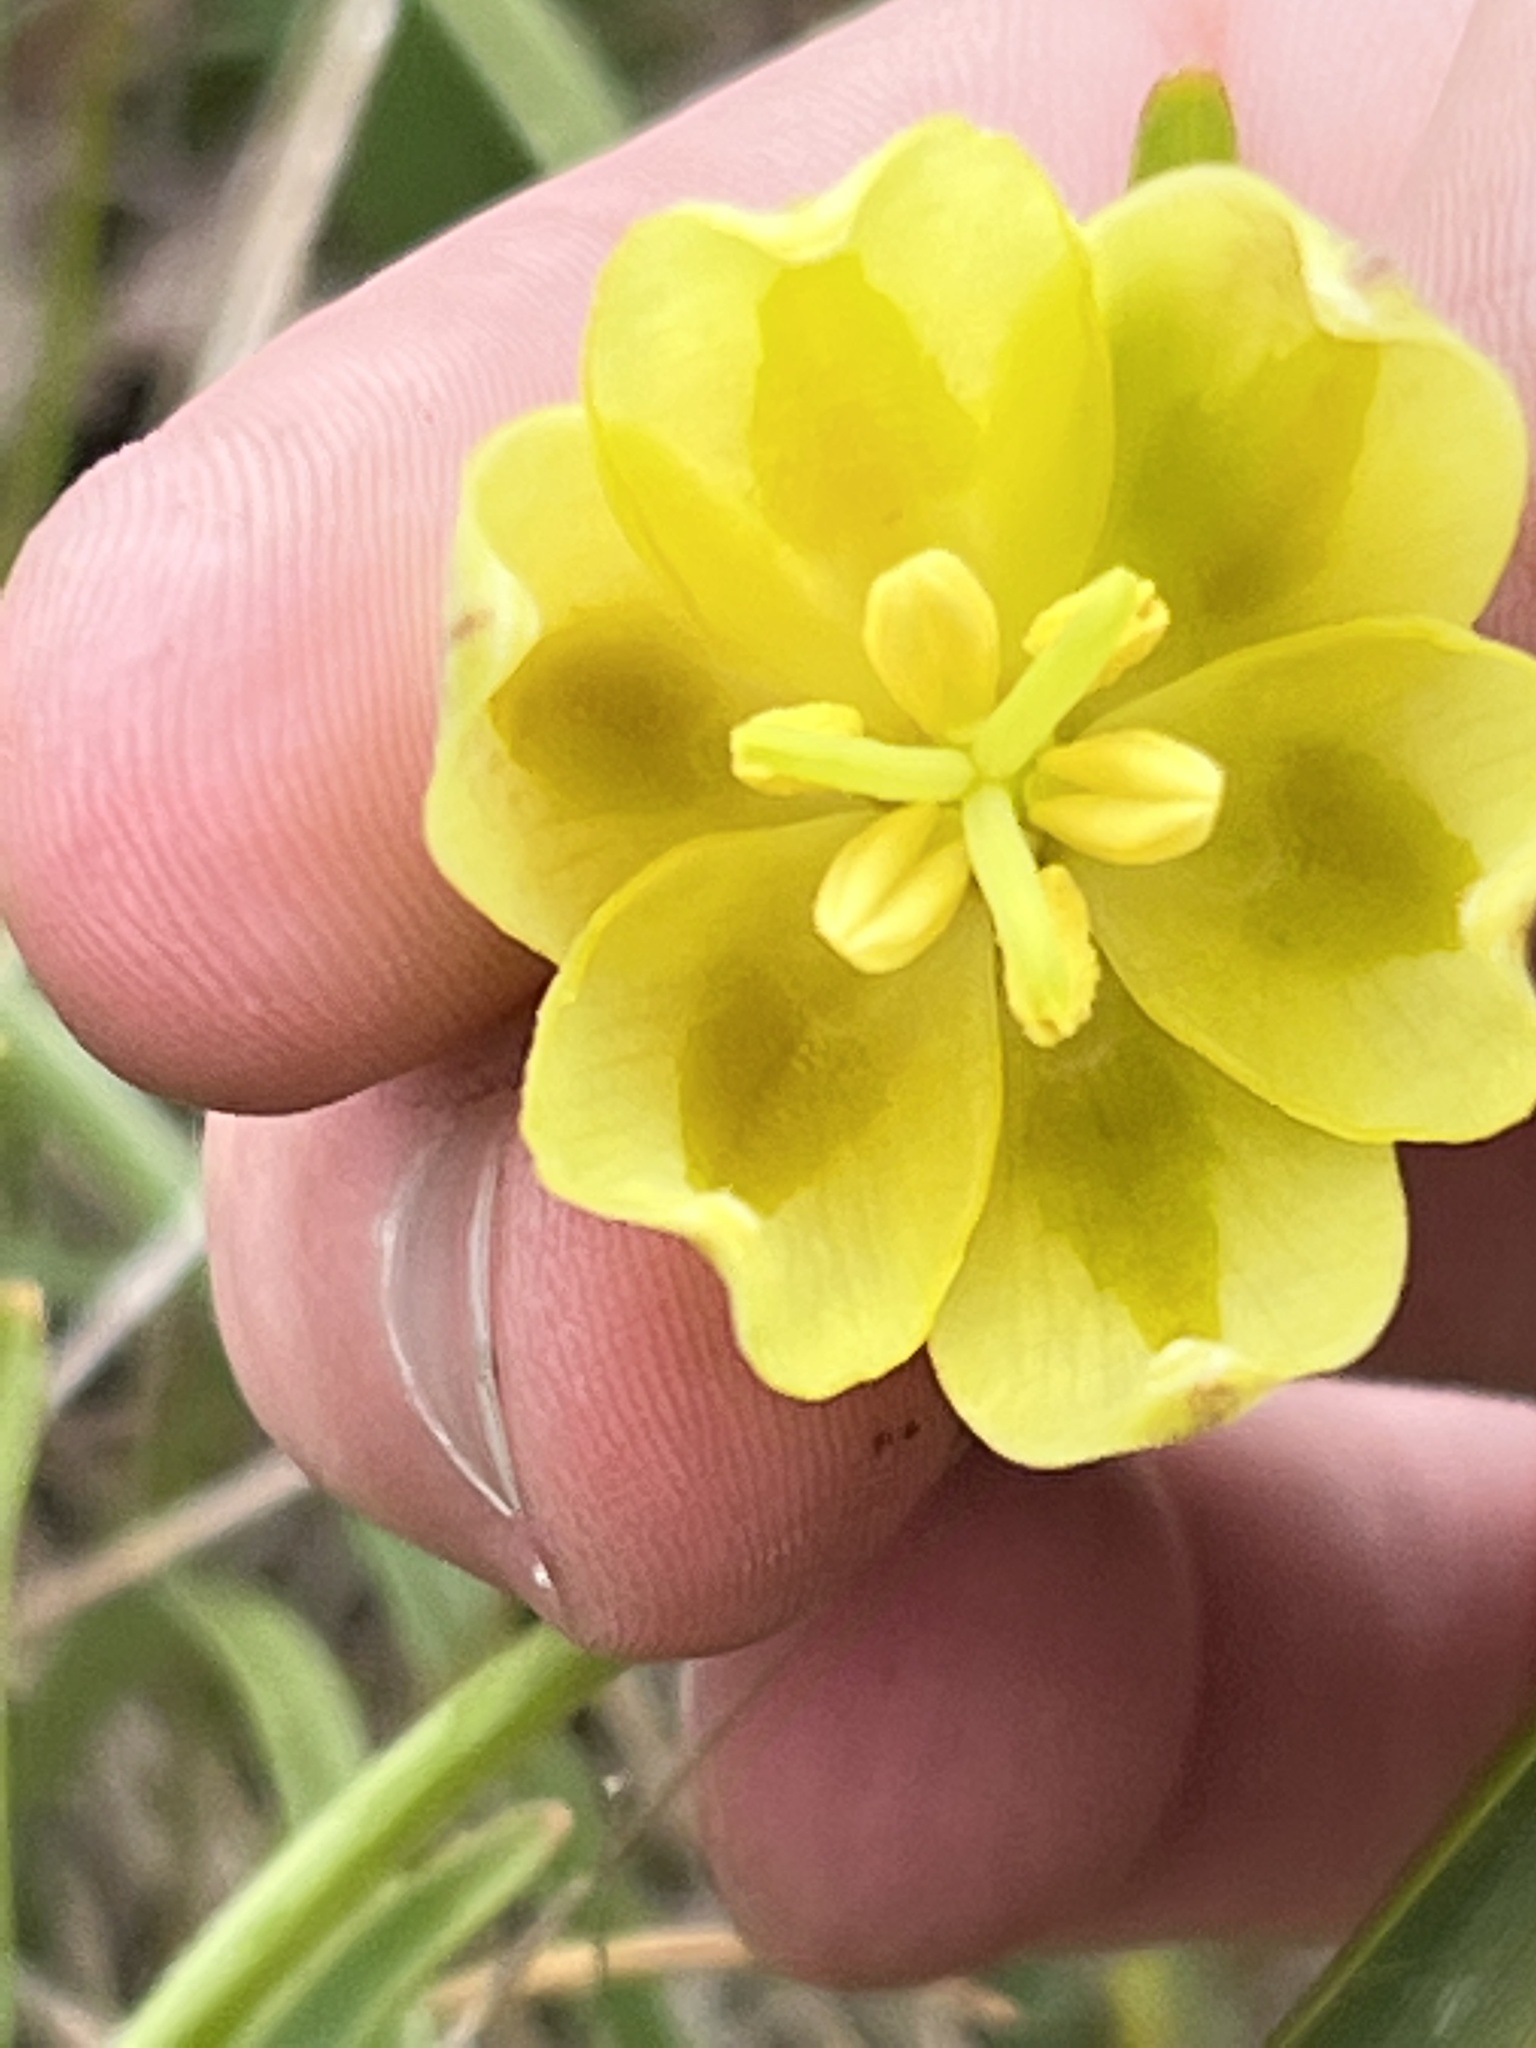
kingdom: Plantae
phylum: Tracheophyta
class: Liliopsida
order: Liliales
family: Liliaceae
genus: Fritillaria
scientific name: Fritillaria affinis
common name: Ojai fritillary
